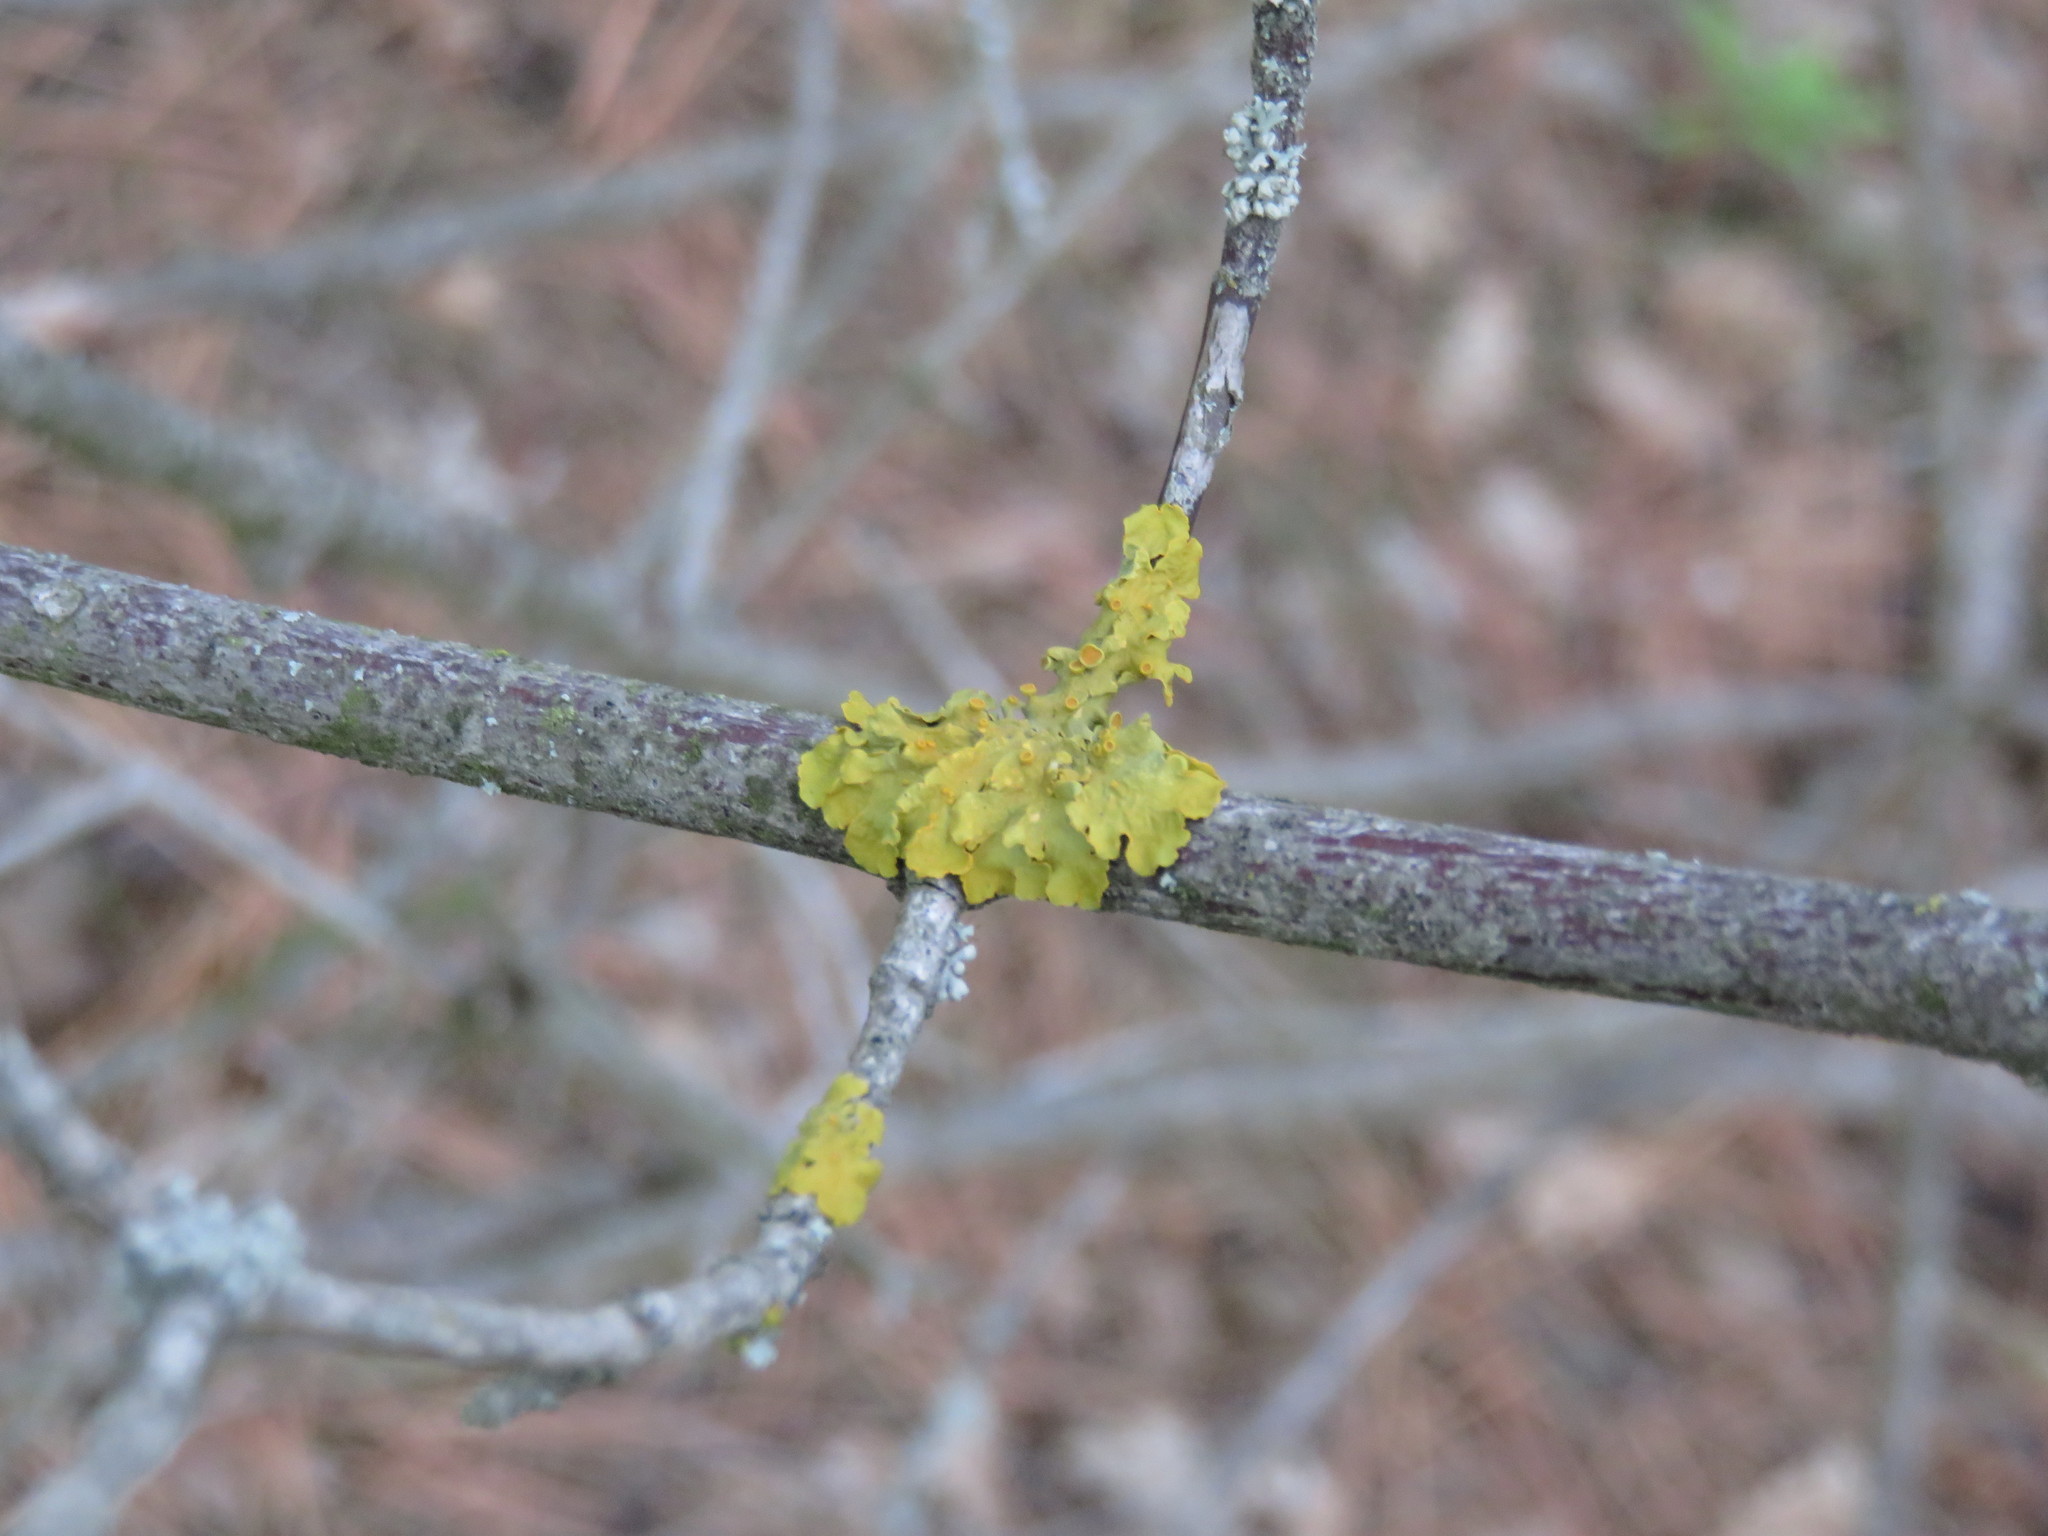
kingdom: Fungi
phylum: Ascomycota
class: Lecanoromycetes
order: Teloschistales
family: Teloschistaceae
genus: Xanthoria
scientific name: Xanthoria parietina
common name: Common orange lichen
